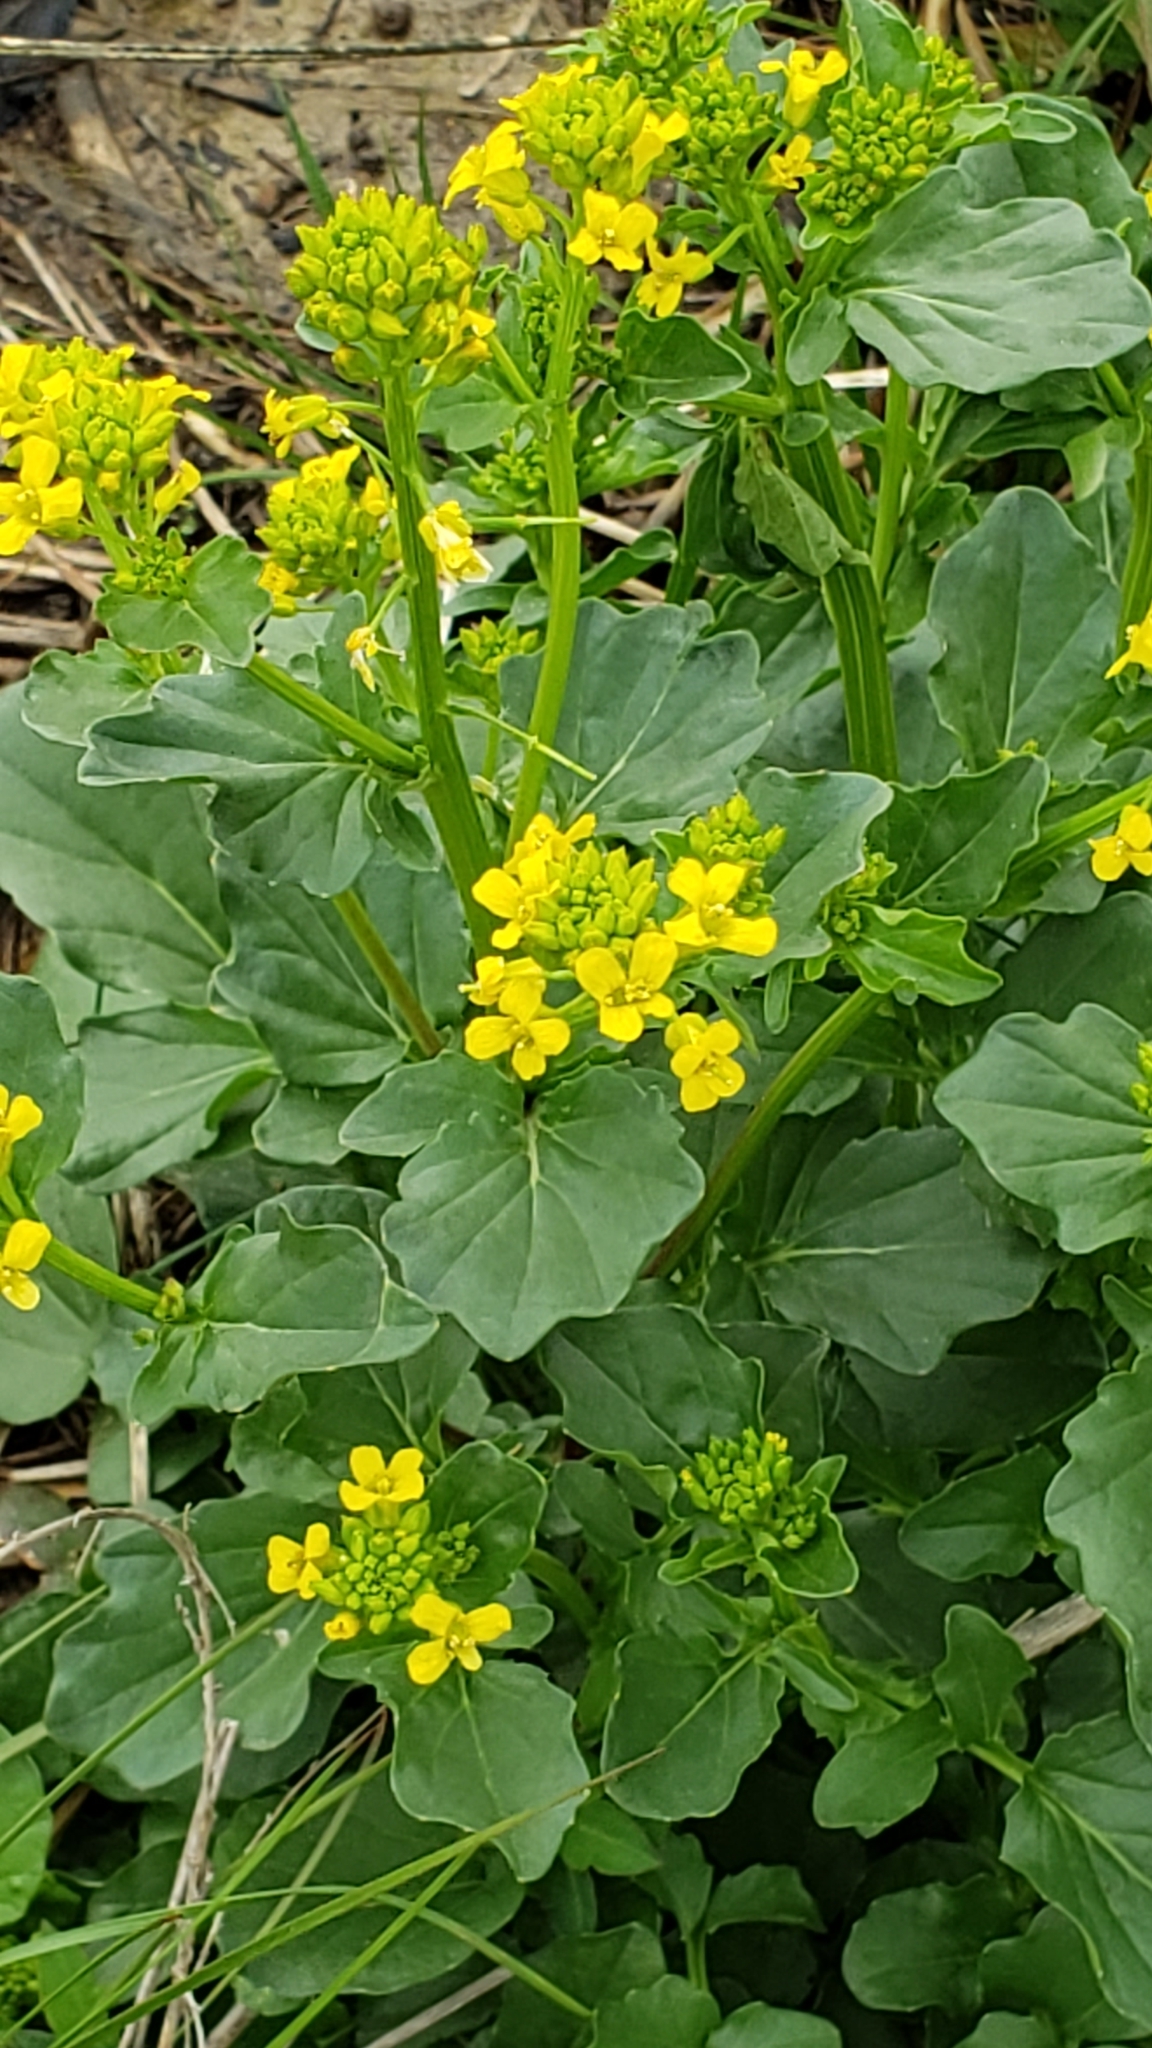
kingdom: Plantae
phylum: Tracheophyta
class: Magnoliopsida
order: Brassicales
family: Brassicaceae
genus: Barbarea
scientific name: Barbarea vulgaris
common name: Cressy-greens
